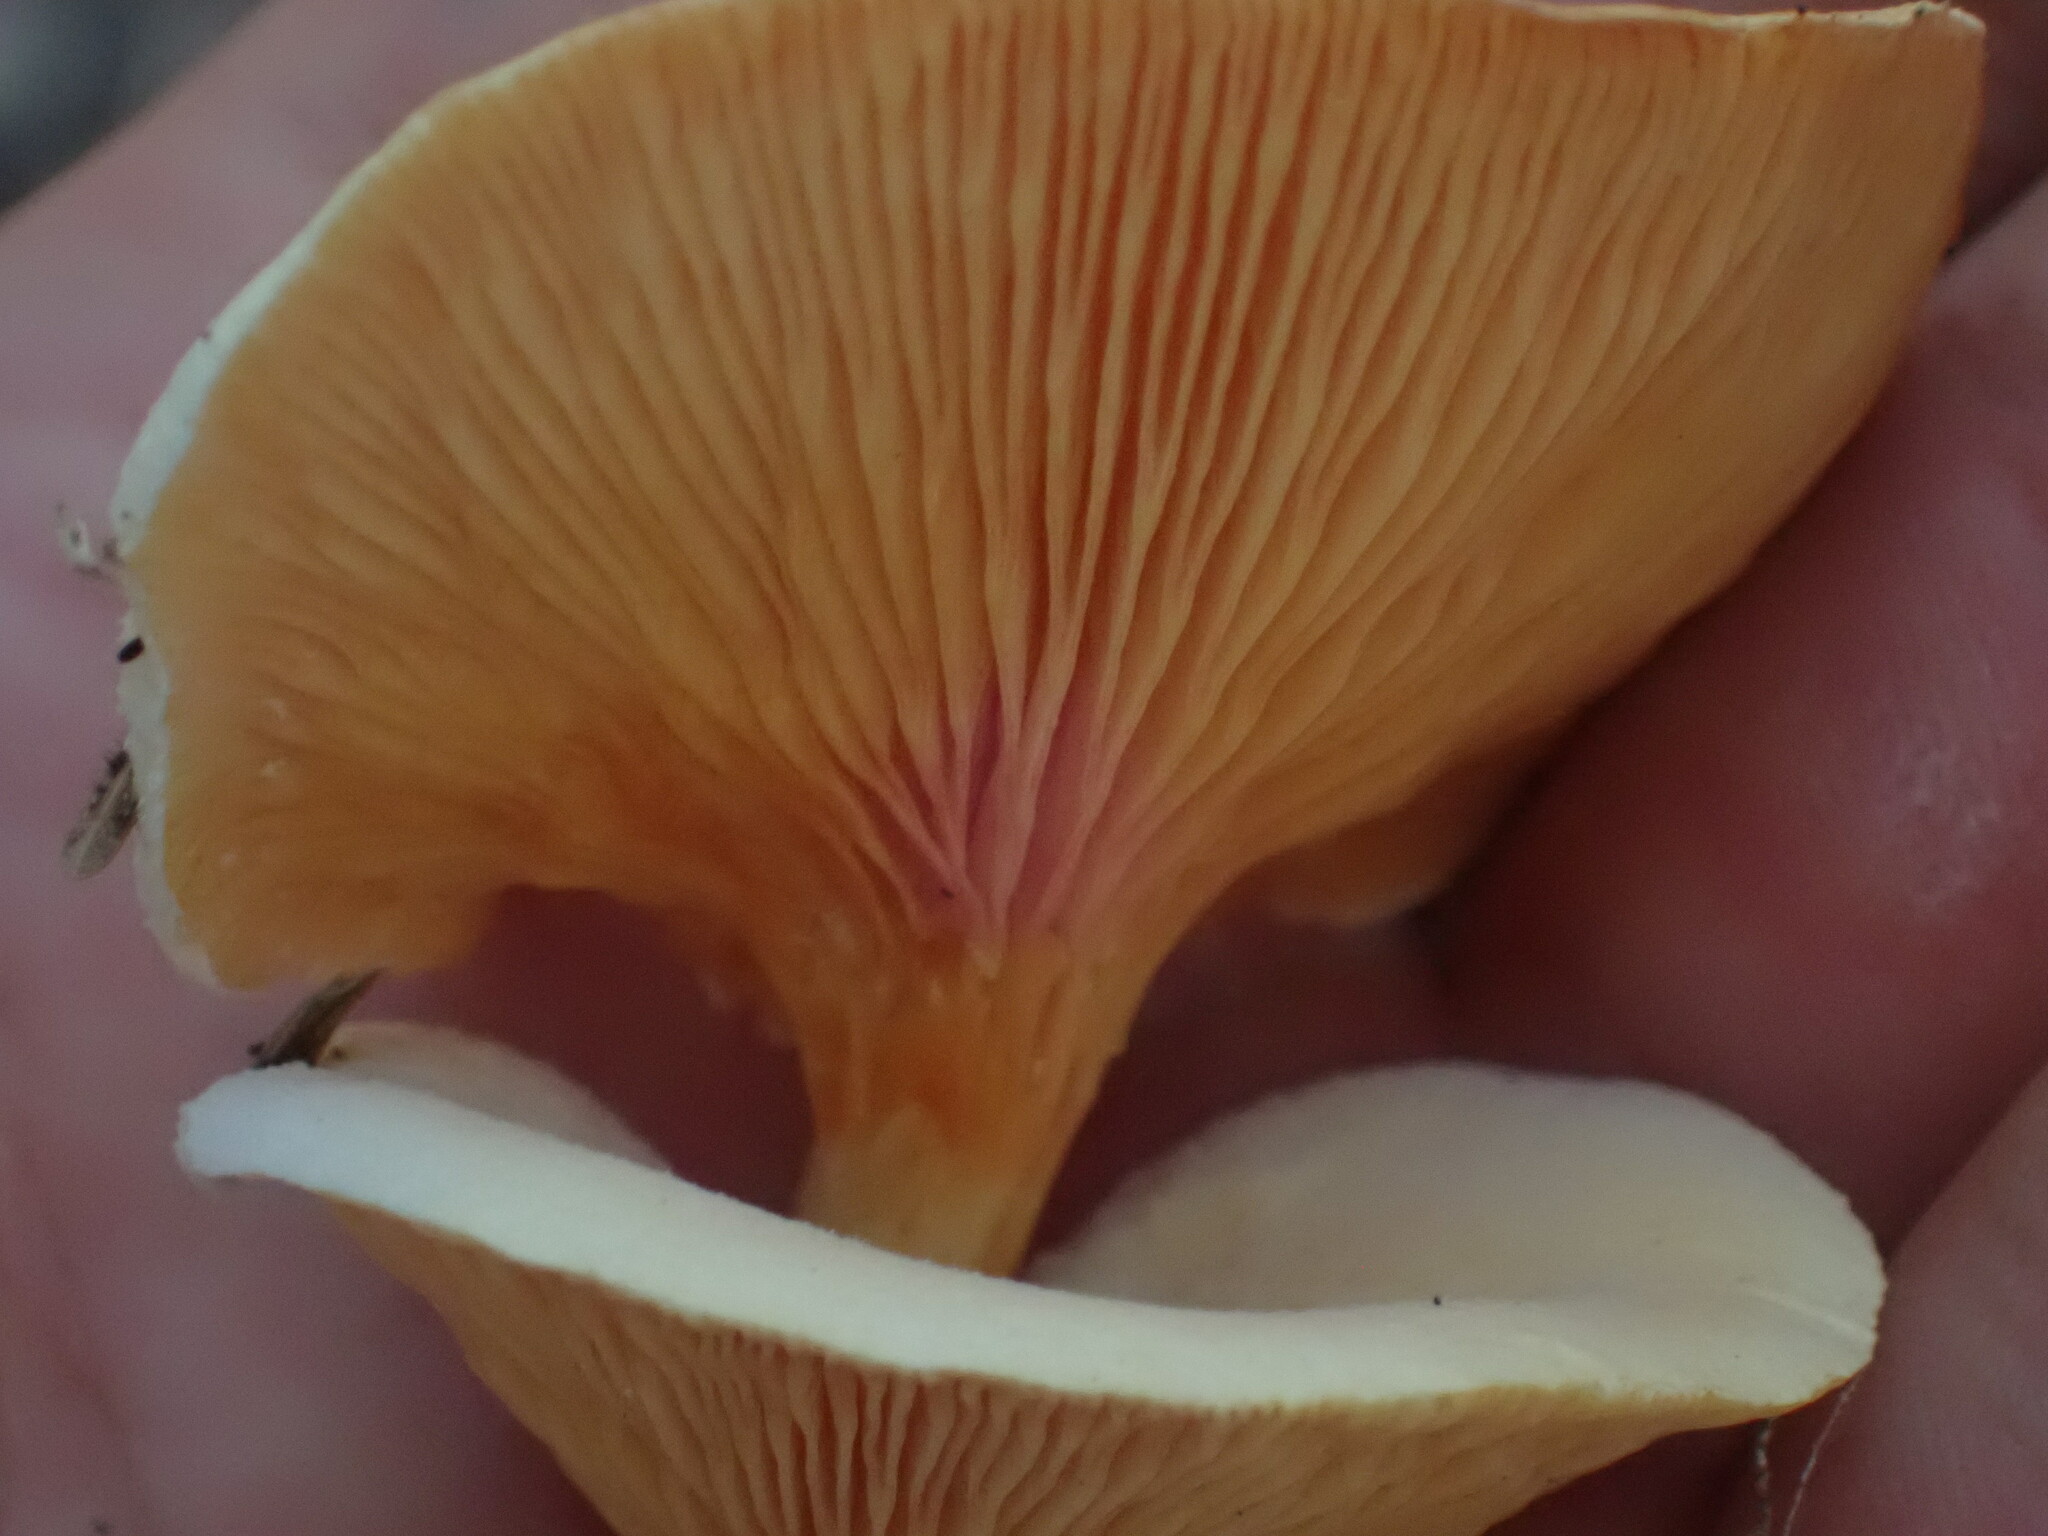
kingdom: Fungi
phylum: Basidiomycota
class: Agaricomycetes
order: Boletales
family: Hygrophoropsidaceae
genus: Hygrophoropsis
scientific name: Hygrophoropsis aurantiaca
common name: False chanterelle
